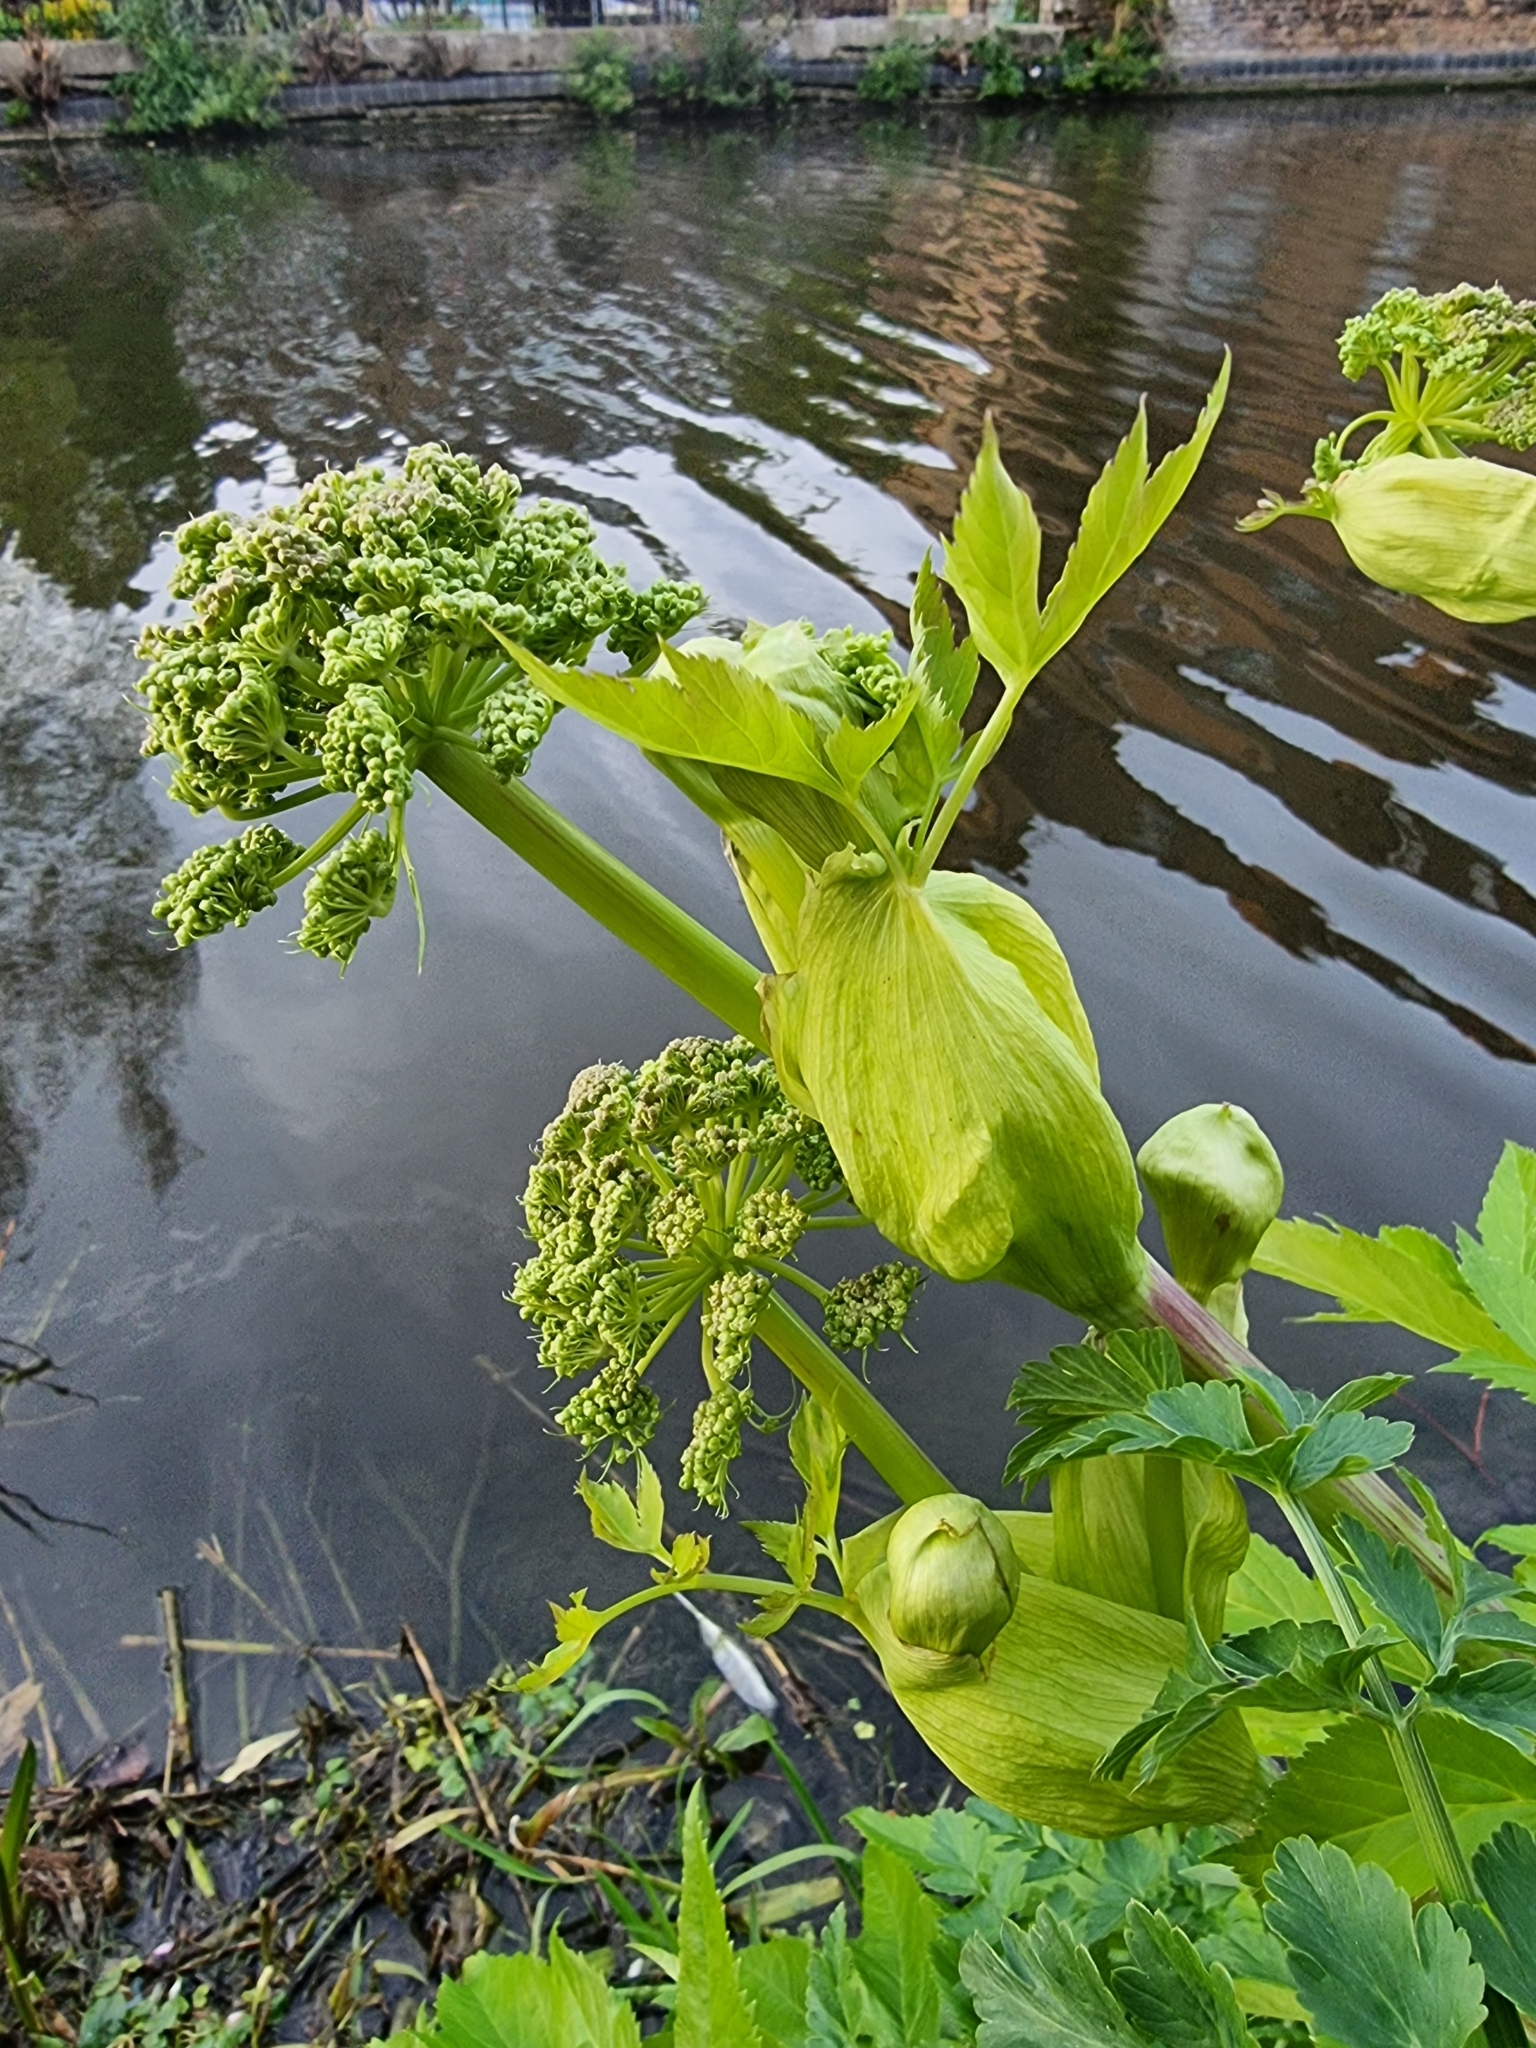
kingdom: Plantae
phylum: Tracheophyta
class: Magnoliopsida
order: Apiales
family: Apiaceae
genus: Angelica
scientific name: Angelica archangelica
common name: Garden angelica
